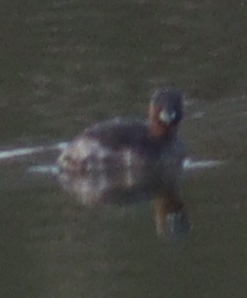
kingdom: Animalia
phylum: Chordata
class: Aves
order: Podicipediformes
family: Podicipedidae
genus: Tachybaptus
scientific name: Tachybaptus ruficollis
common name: Little grebe
